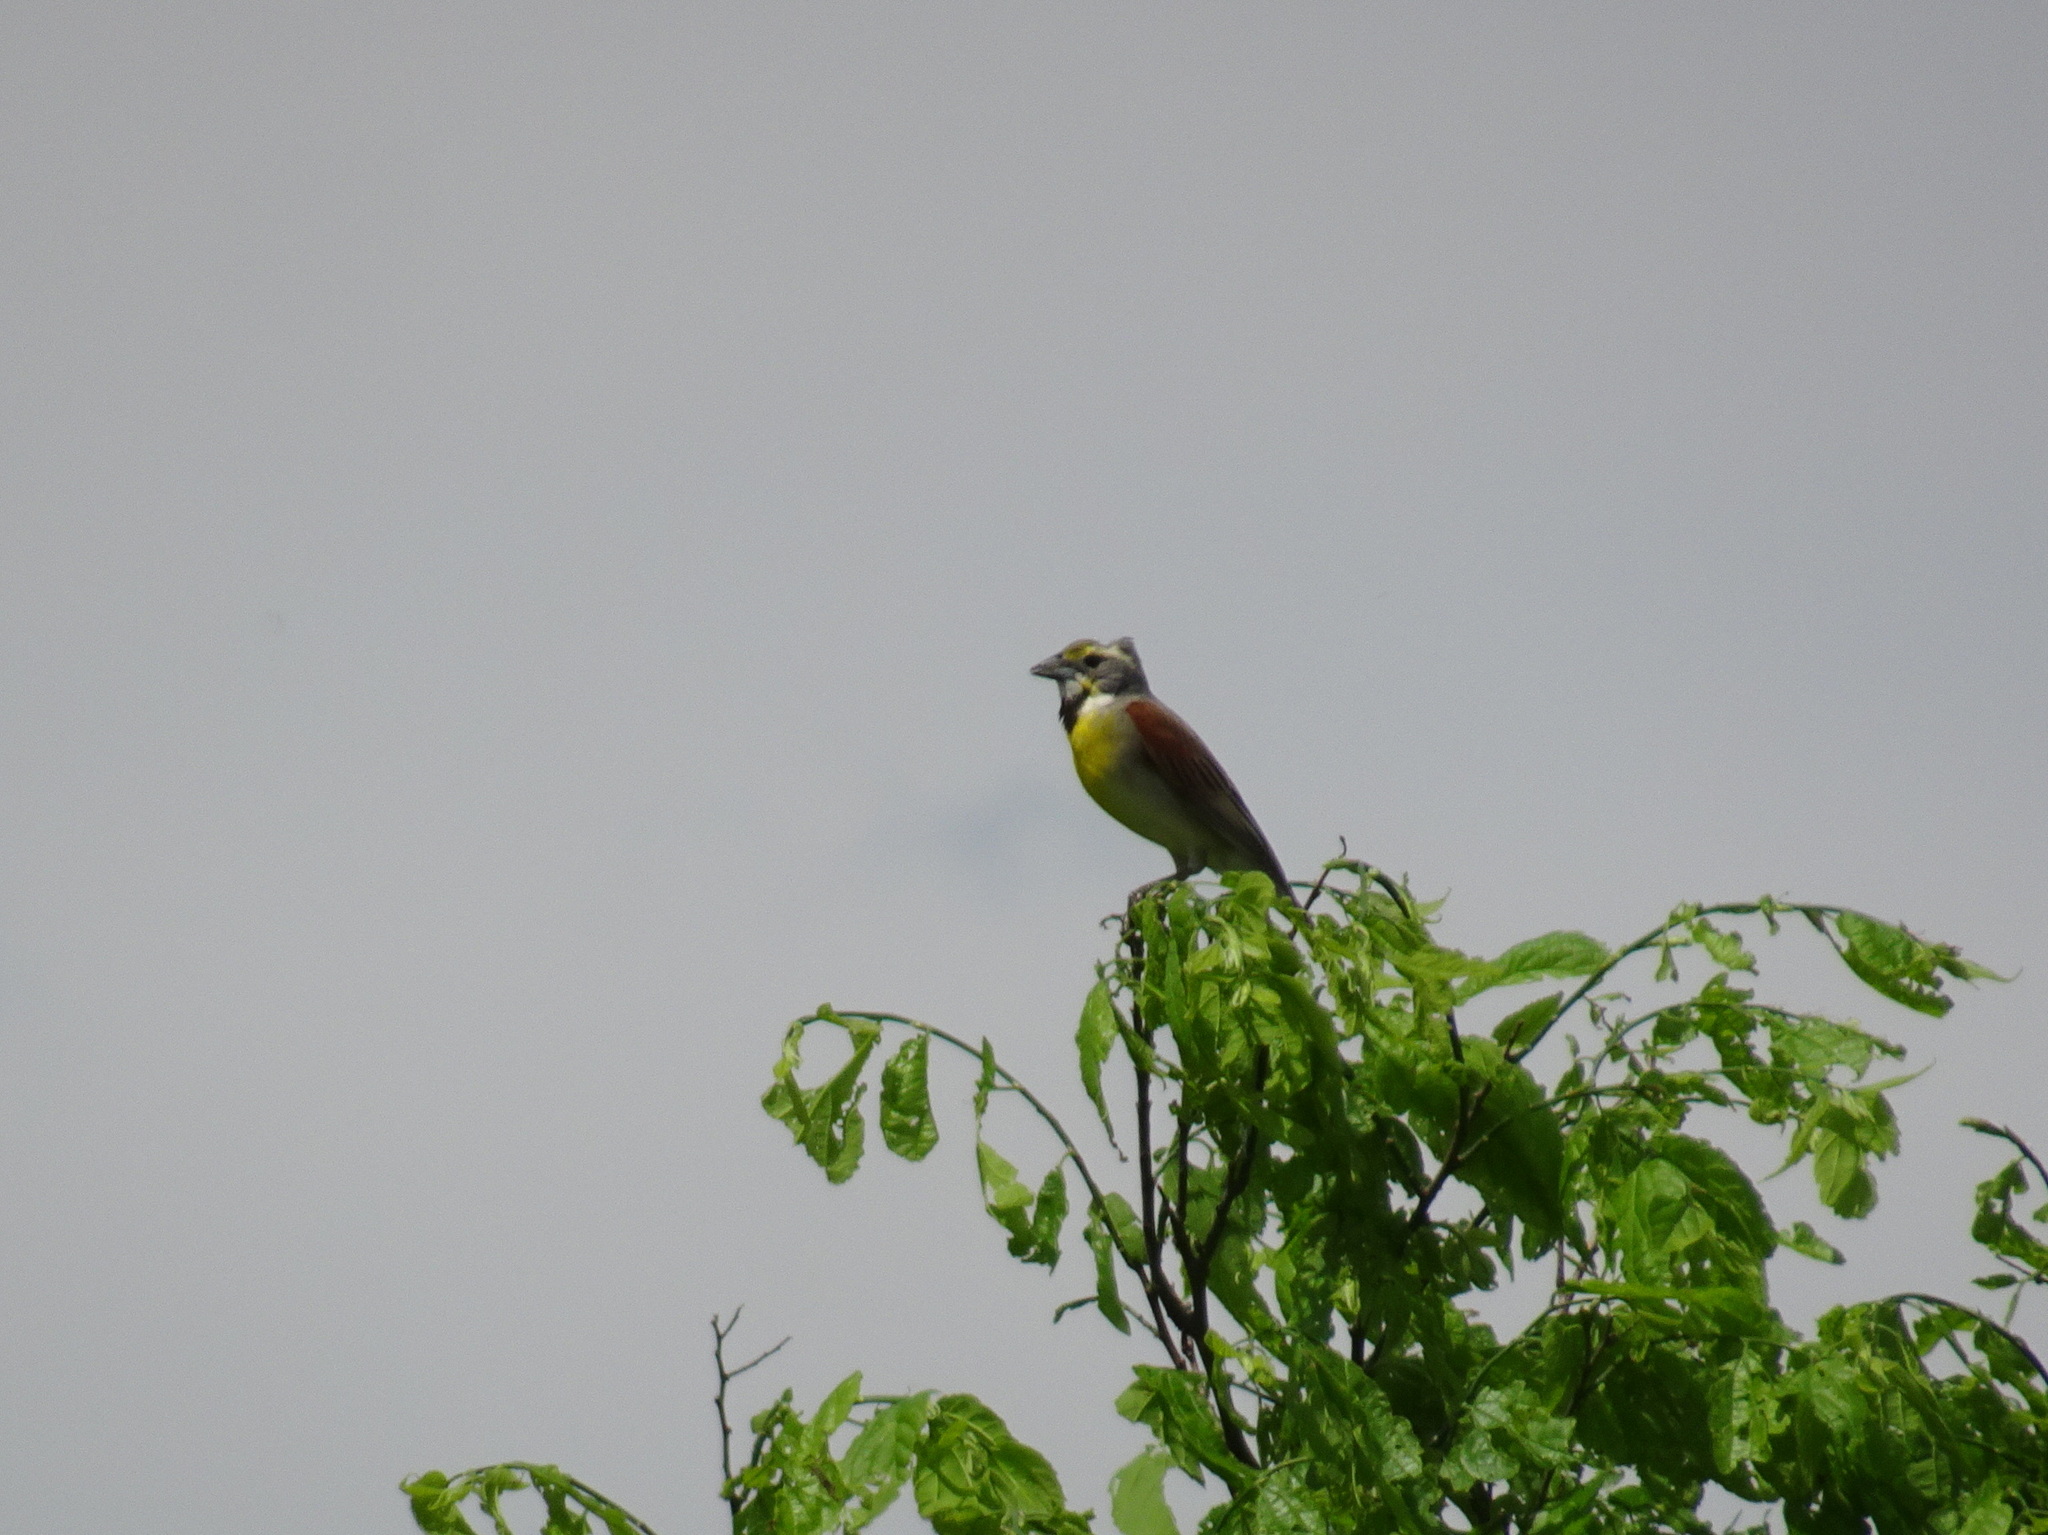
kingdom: Animalia
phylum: Chordata
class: Aves
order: Passeriformes
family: Cardinalidae
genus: Spiza
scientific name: Spiza americana
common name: Dickcissel
